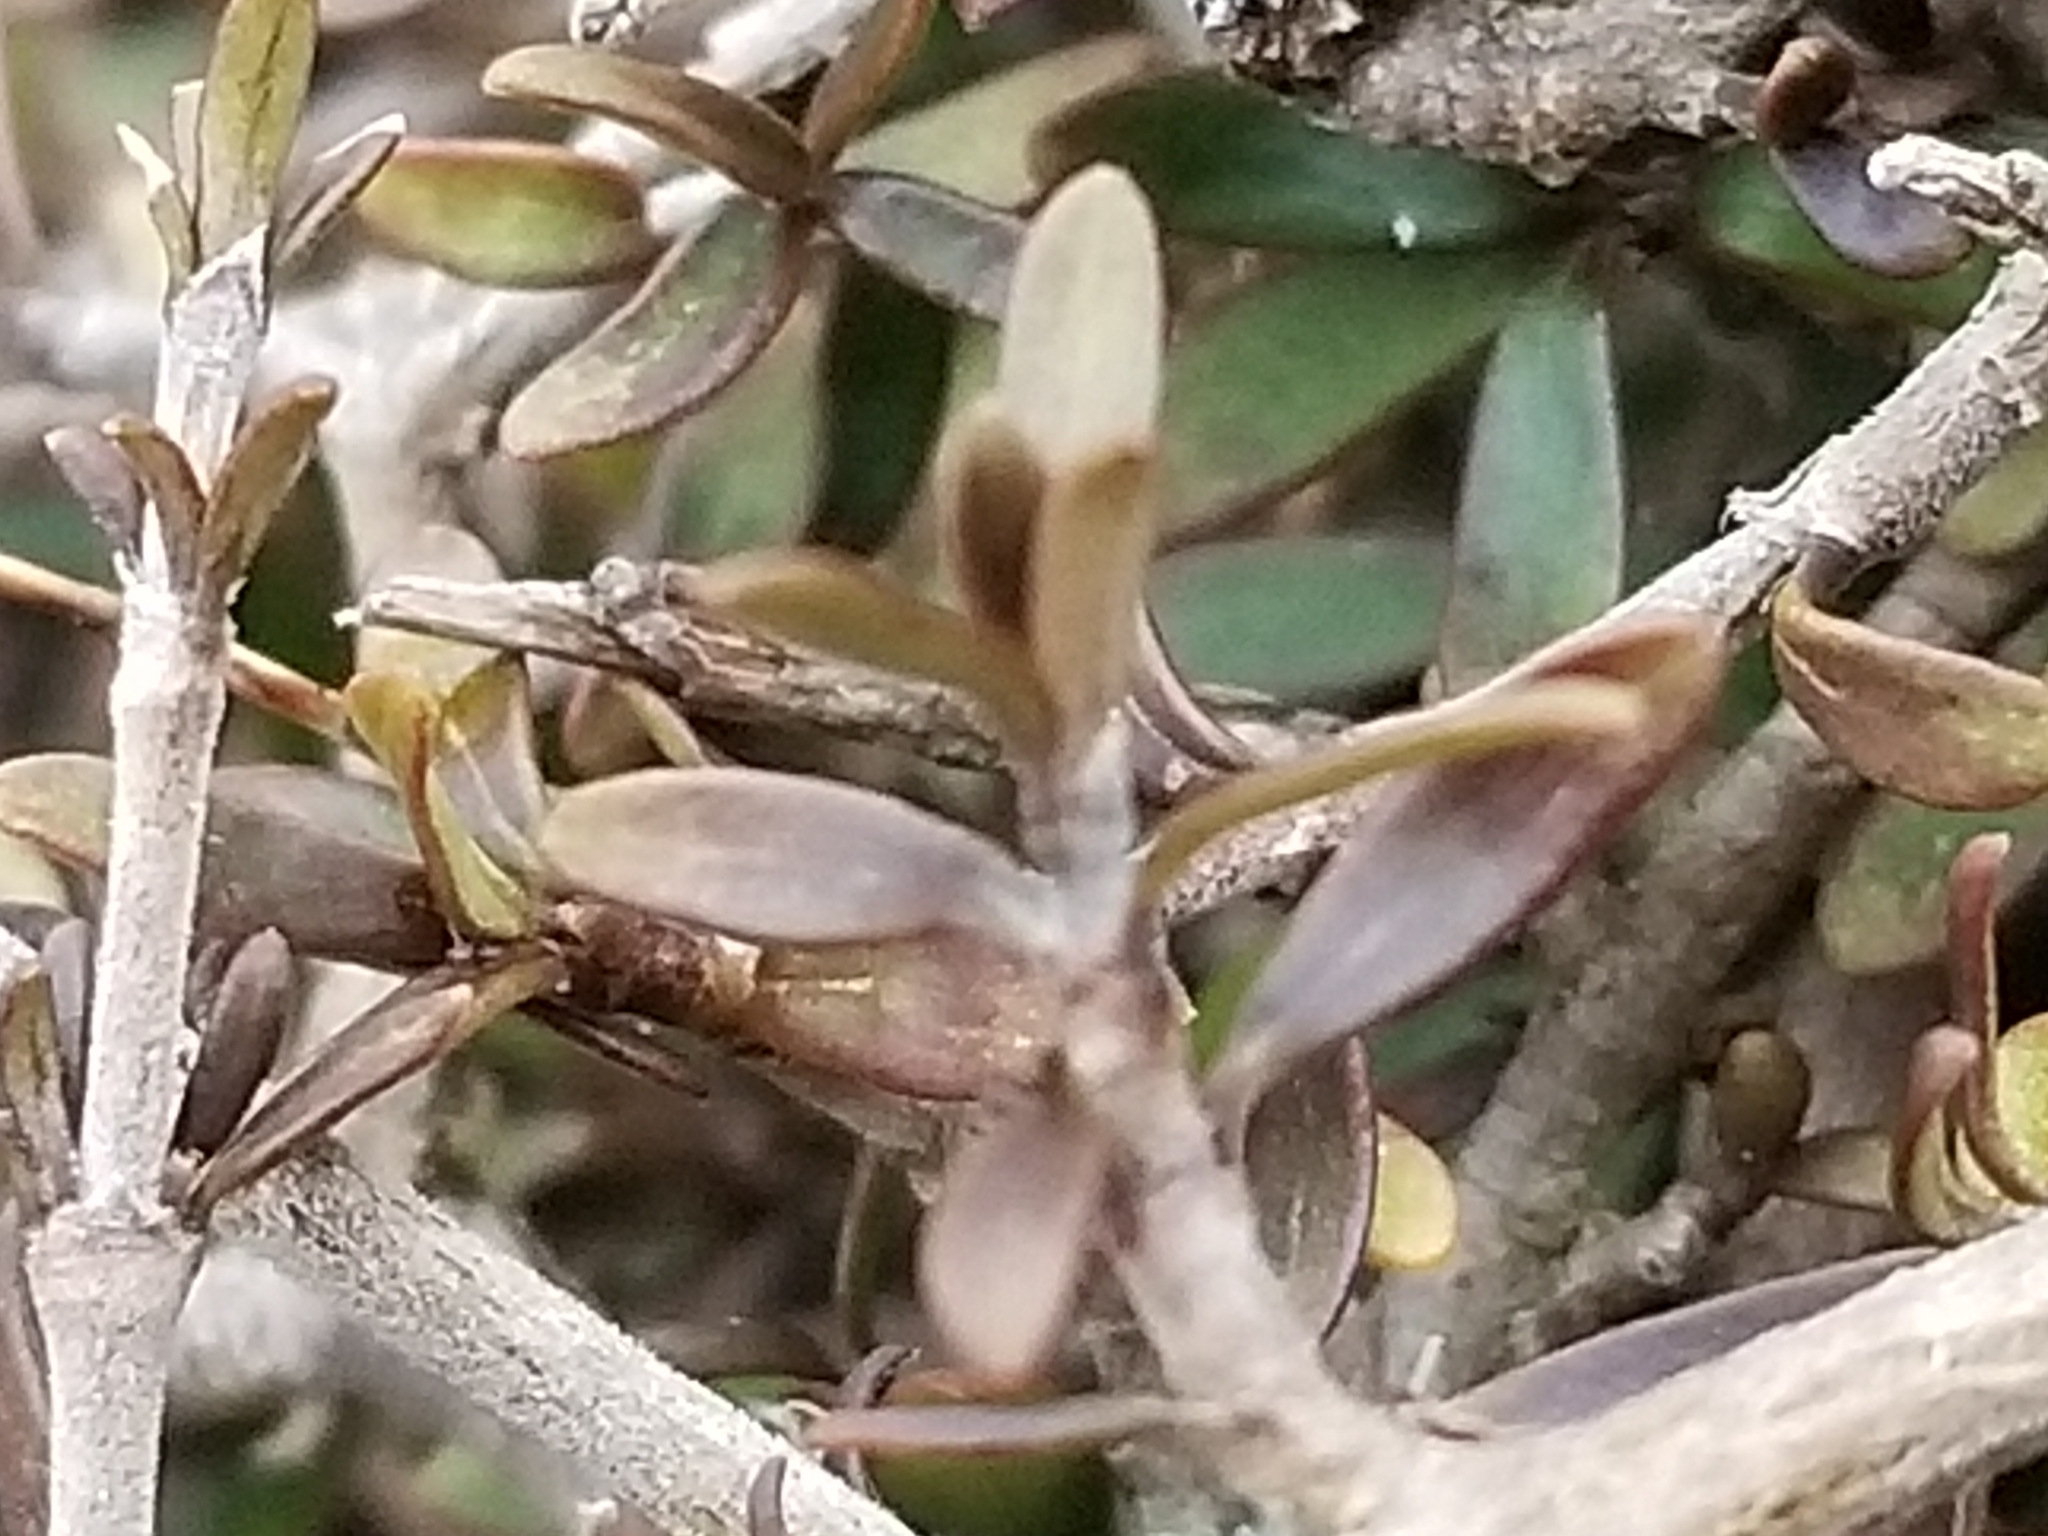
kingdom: Plantae
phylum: Tracheophyta
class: Magnoliopsida
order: Gentianales
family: Rubiaceae
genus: Coprosma
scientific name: Coprosma propinqua
